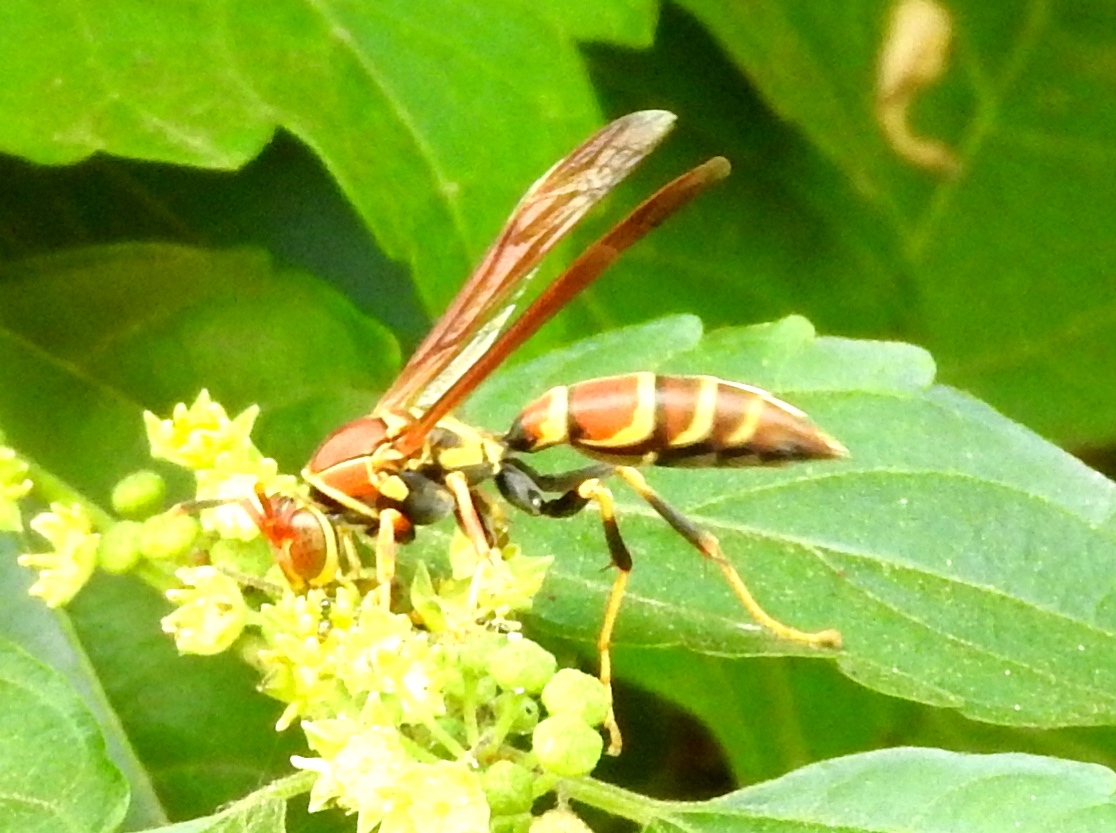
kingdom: Animalia
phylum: Arthropoda
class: Insecta
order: Hymenoptera
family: Eumenidae
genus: Polistes
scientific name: Polistes instabilis
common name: Unstable paper wasp
